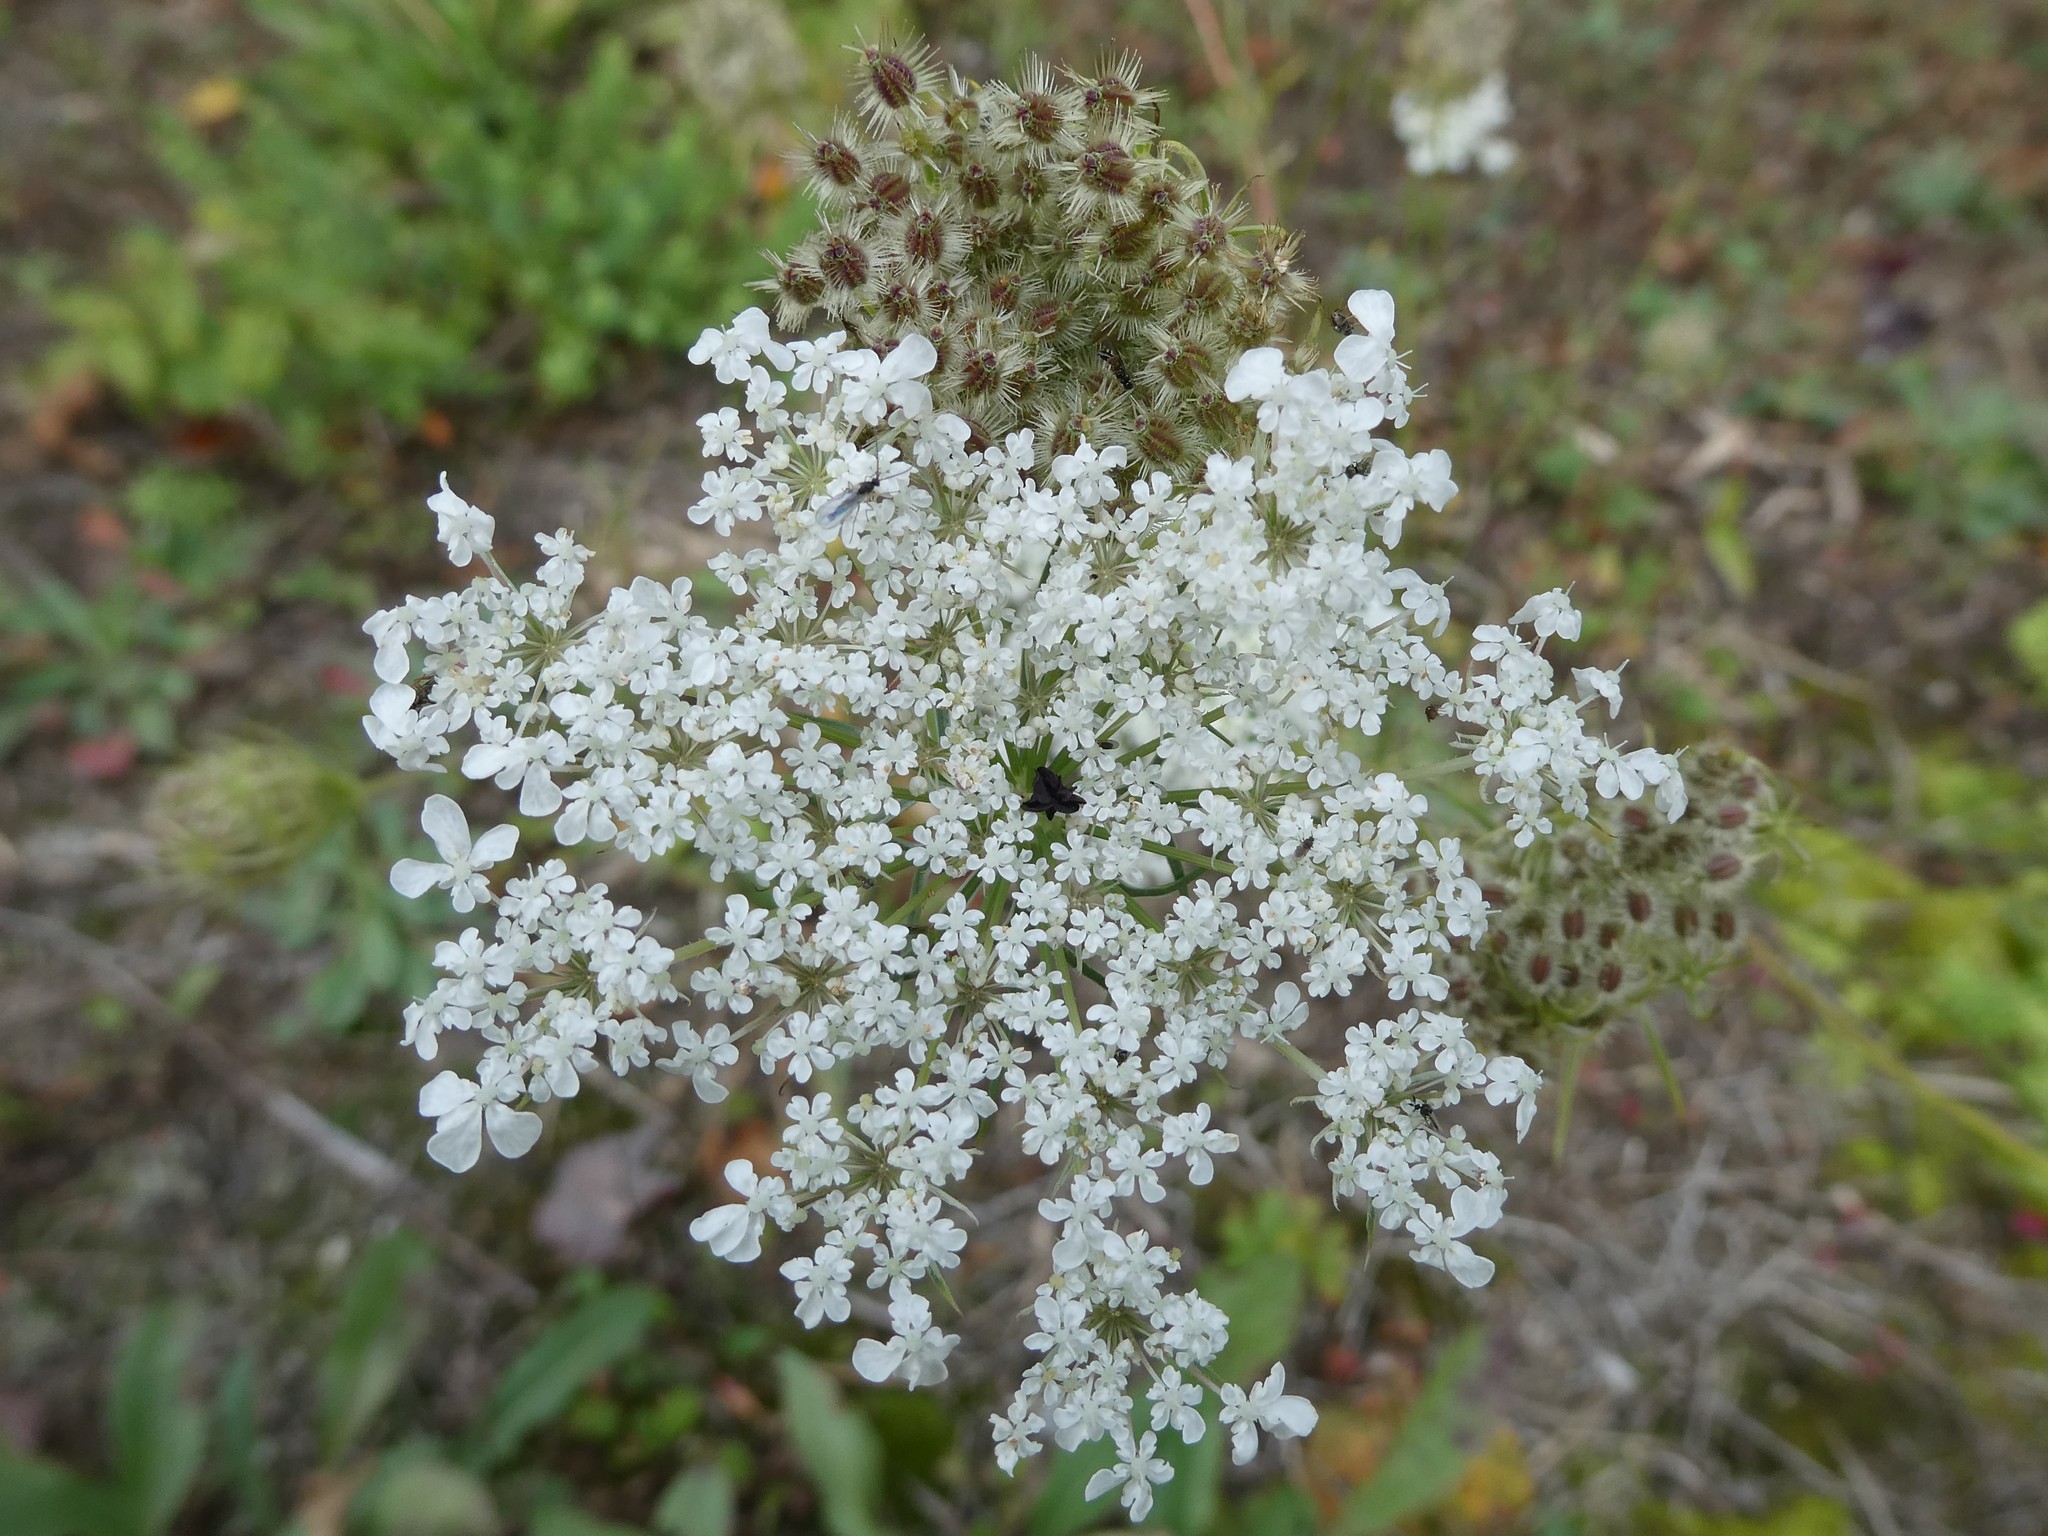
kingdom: Plantae
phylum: Tracheophyta
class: Magnoliopsida
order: Apiales
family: Apiaceae
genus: Daucus
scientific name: Daucus carota
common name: Wild carrot
